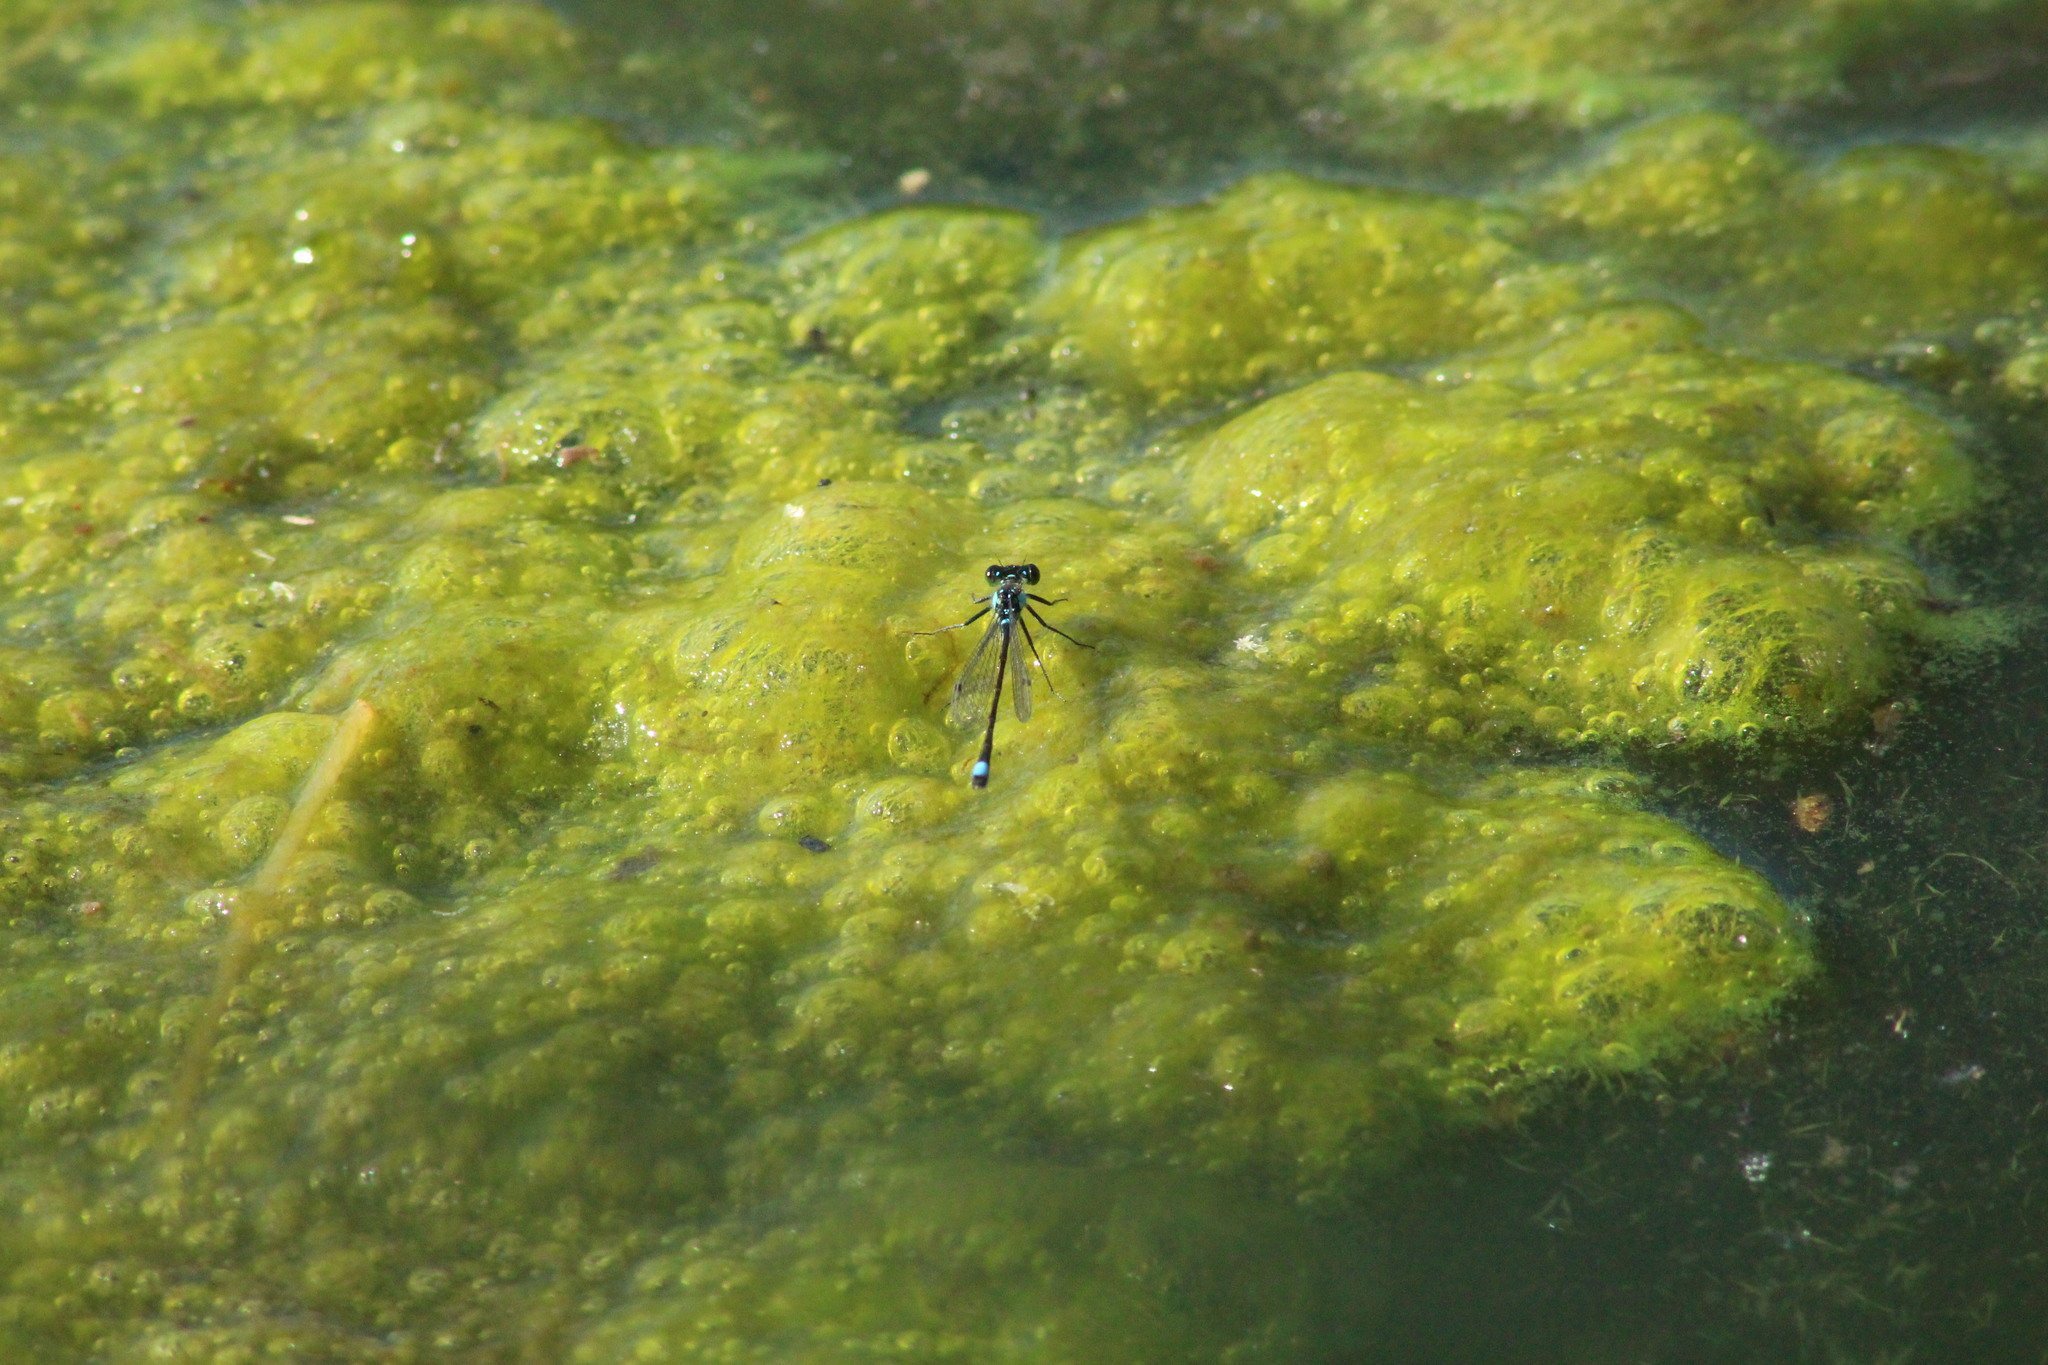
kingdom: Animalia
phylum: Arthropoda
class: Insecta
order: Odonata
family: Coenagrionidae
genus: Ischnura
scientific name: Ischnura cervula
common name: Pacific forktail
